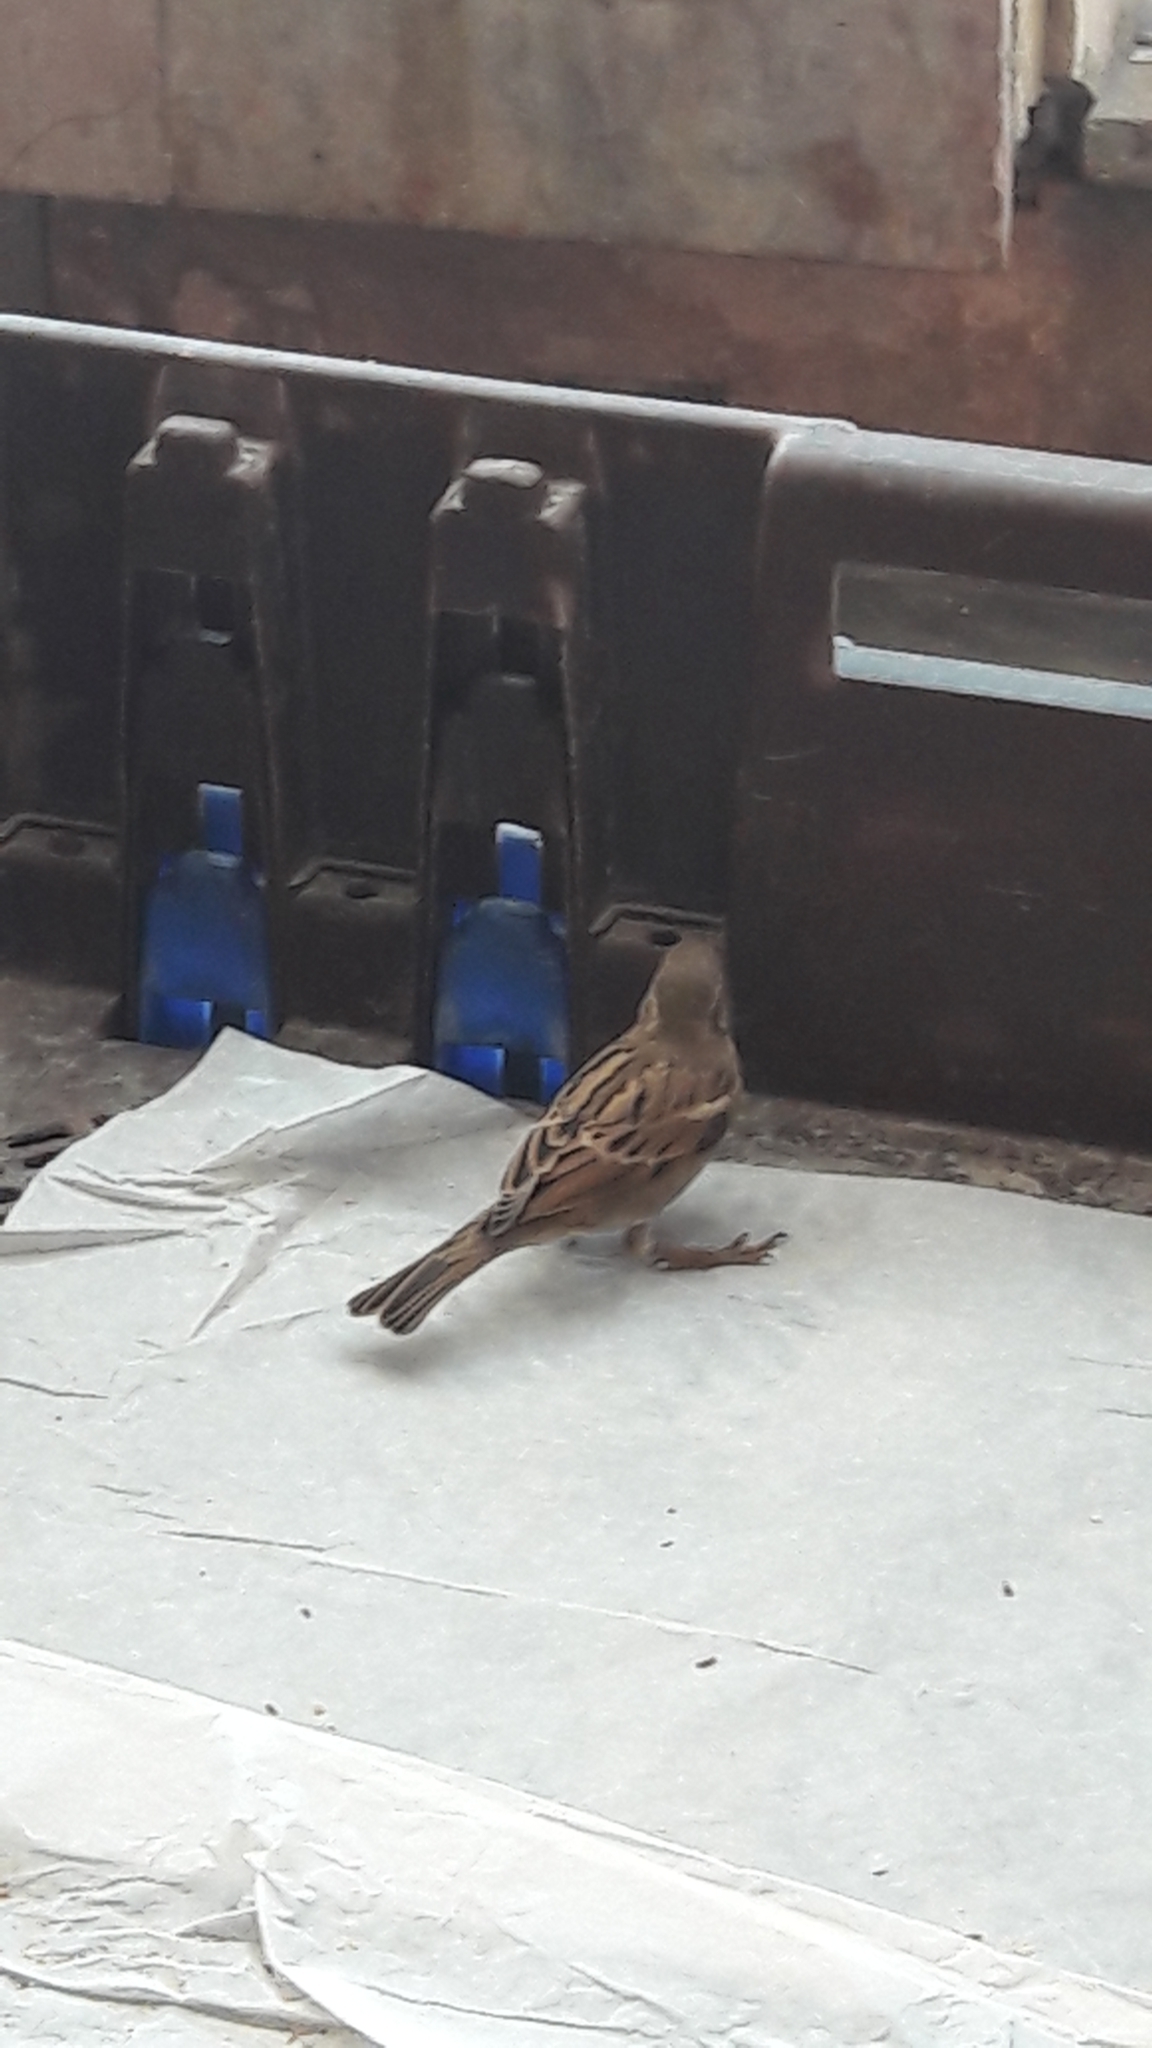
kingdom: Animalia
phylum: Chordata
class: Aves
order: Passeriformes
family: Passeridae
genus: Passer
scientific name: Passer domesticus
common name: House sparrow
